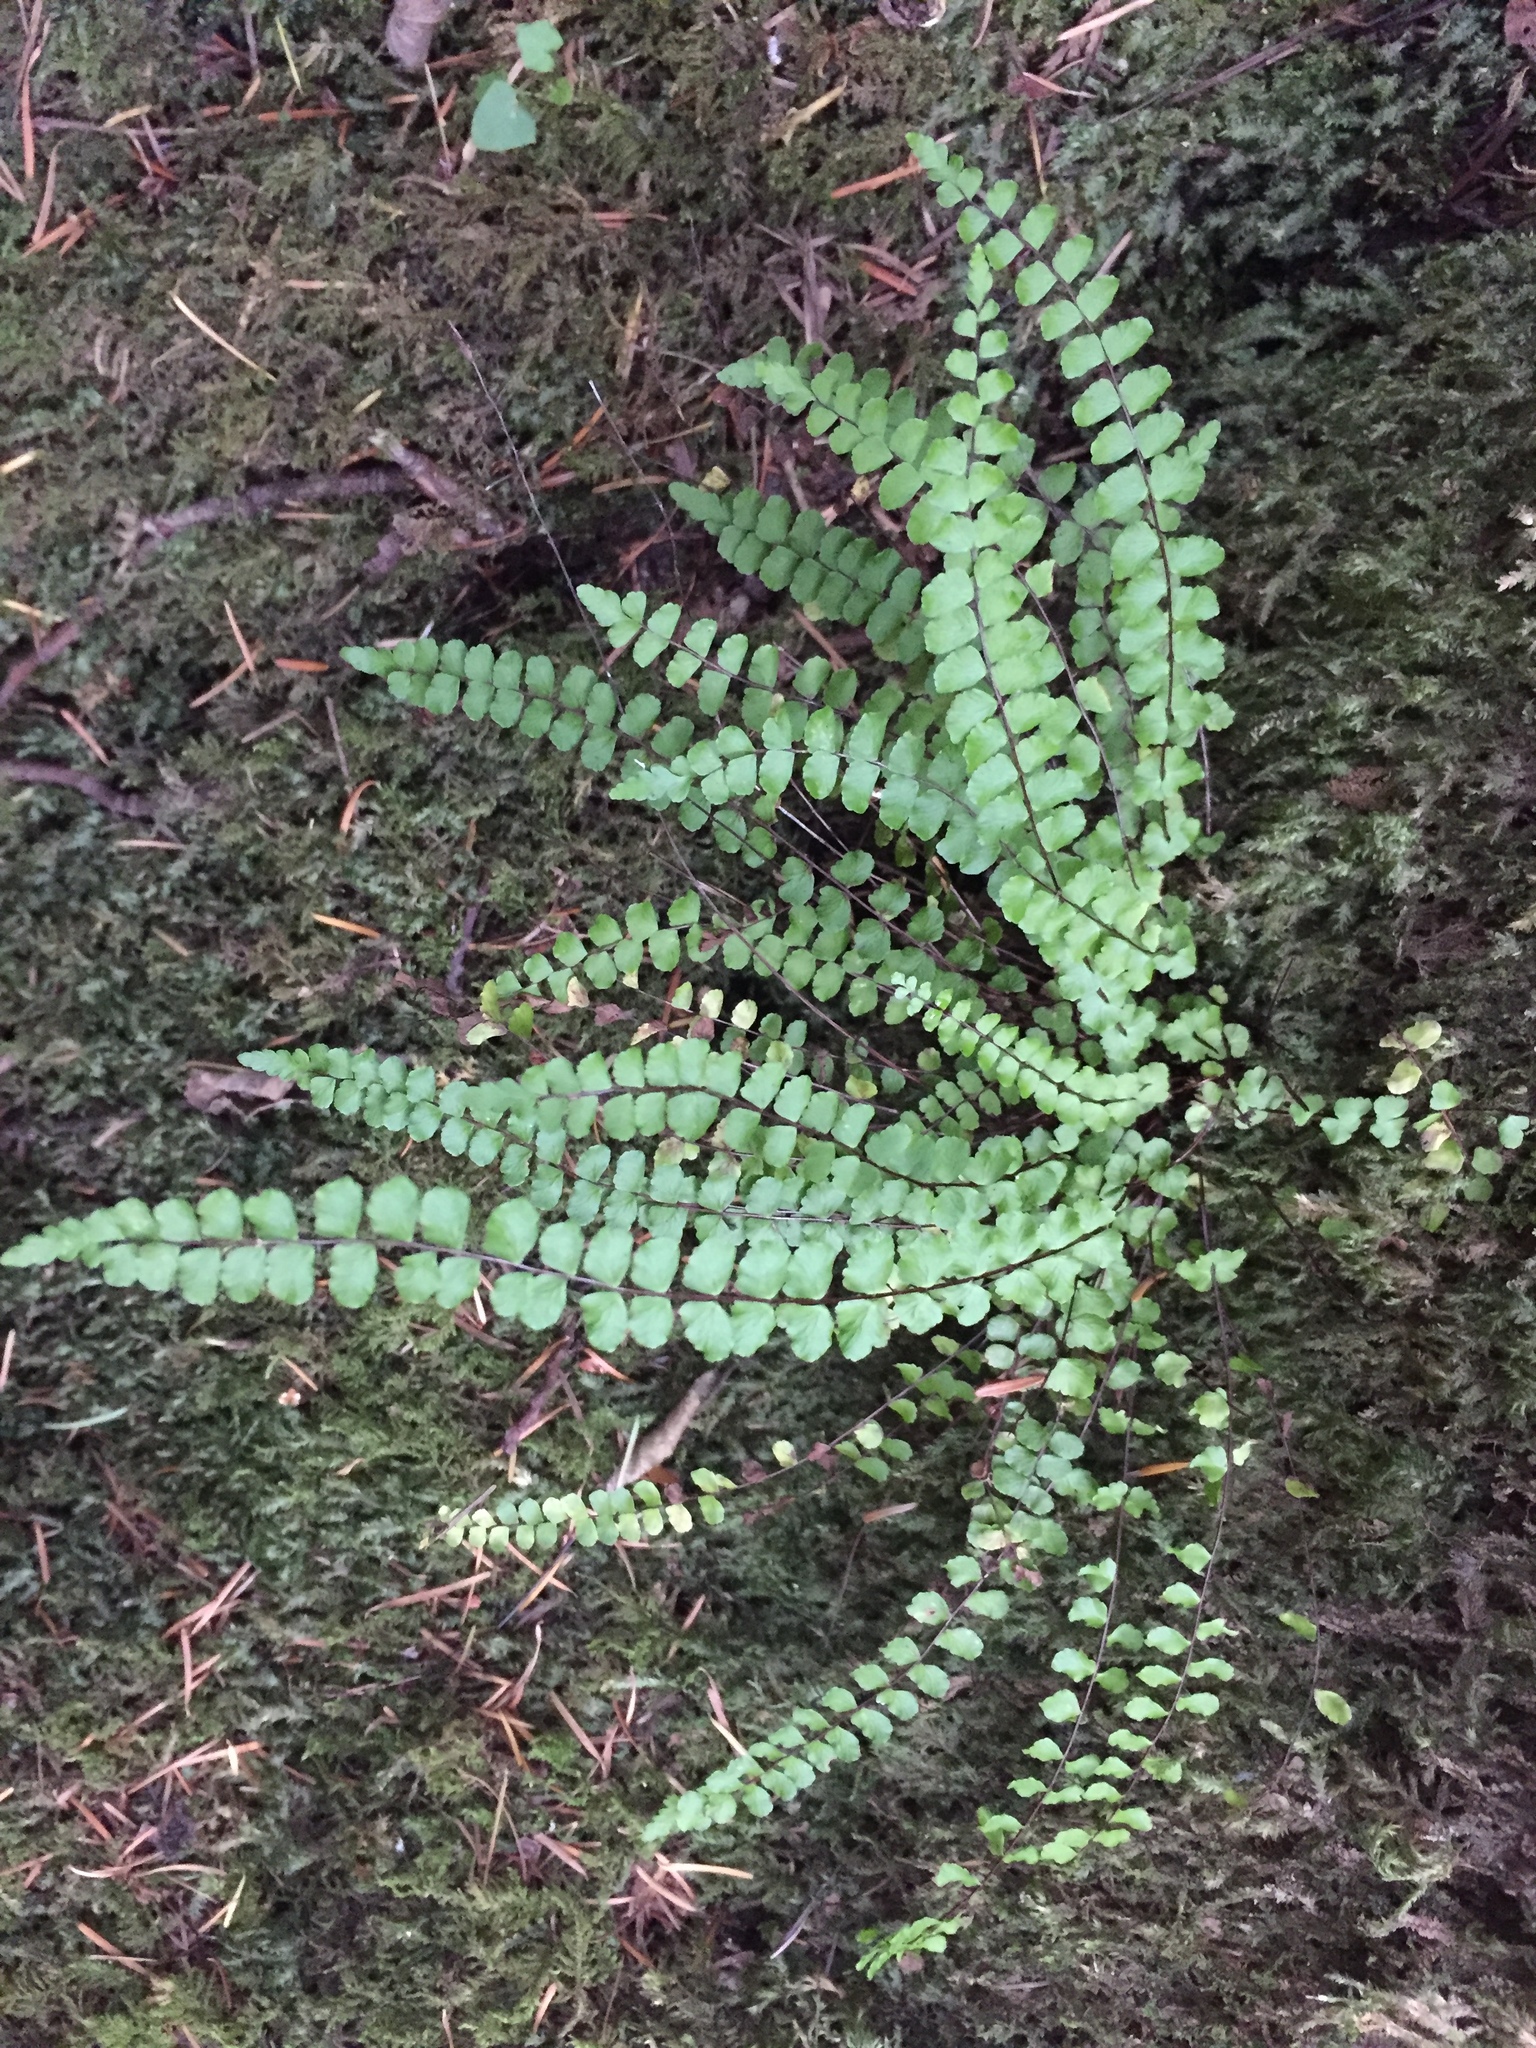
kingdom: Plantae
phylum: Tracheophyta
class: Polypodiopsida
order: Polypodiales
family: Aspleniaceae
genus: Asplenium
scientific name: Asplenium trichomanes
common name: Maidenhair spleenwort
